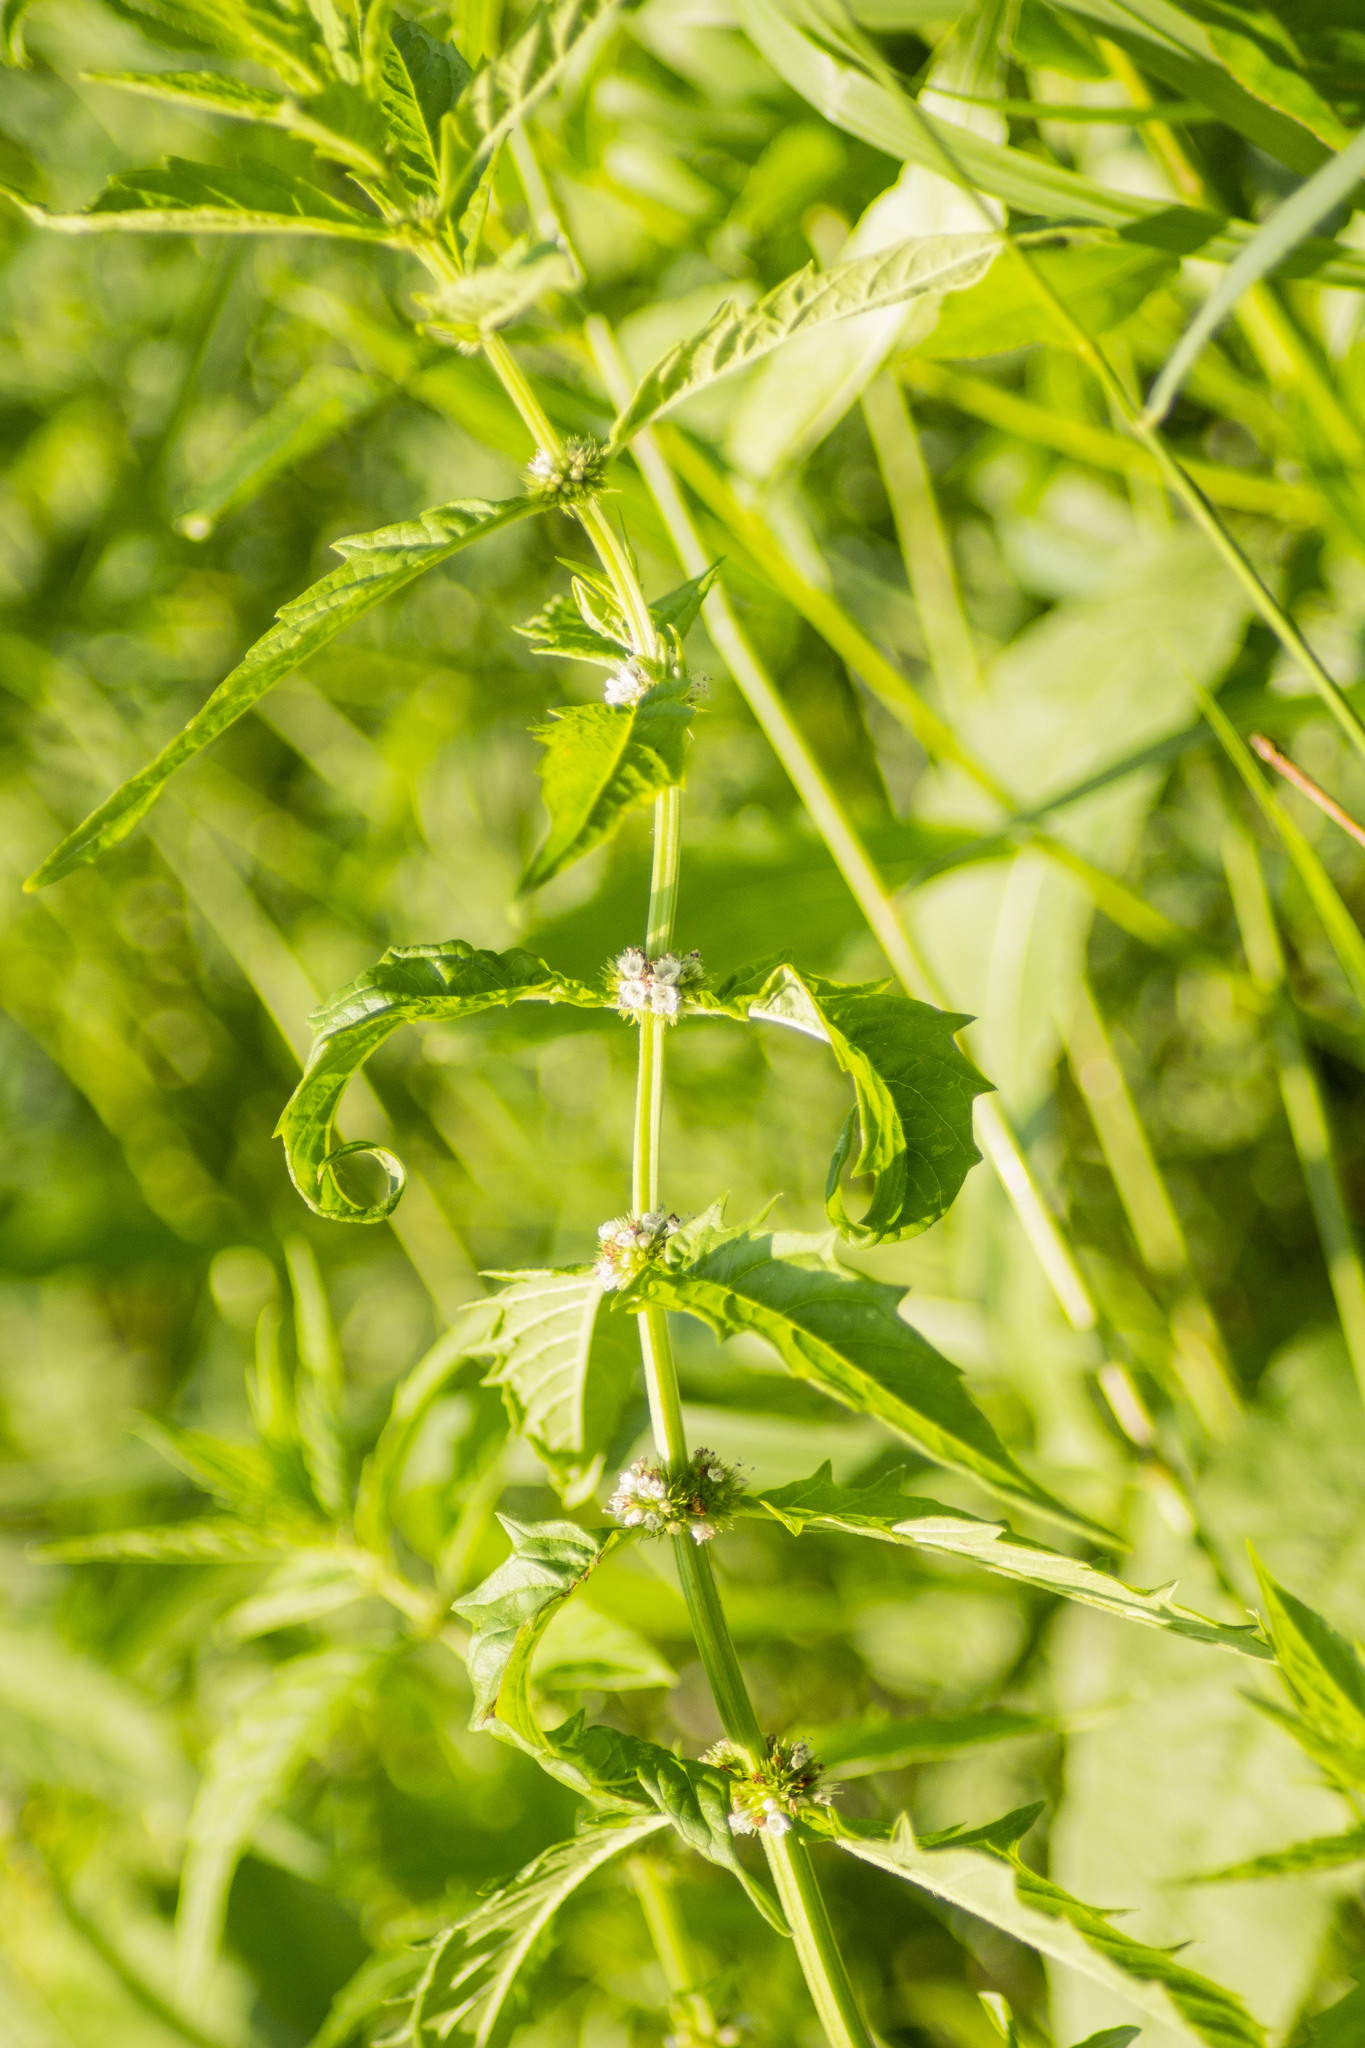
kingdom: Plantae
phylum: Tracheophyta
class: Magnoliopsida
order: Lamiales
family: Lamiaceae
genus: Lycopus
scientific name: Lycopus europaeus
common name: European bugleweed
